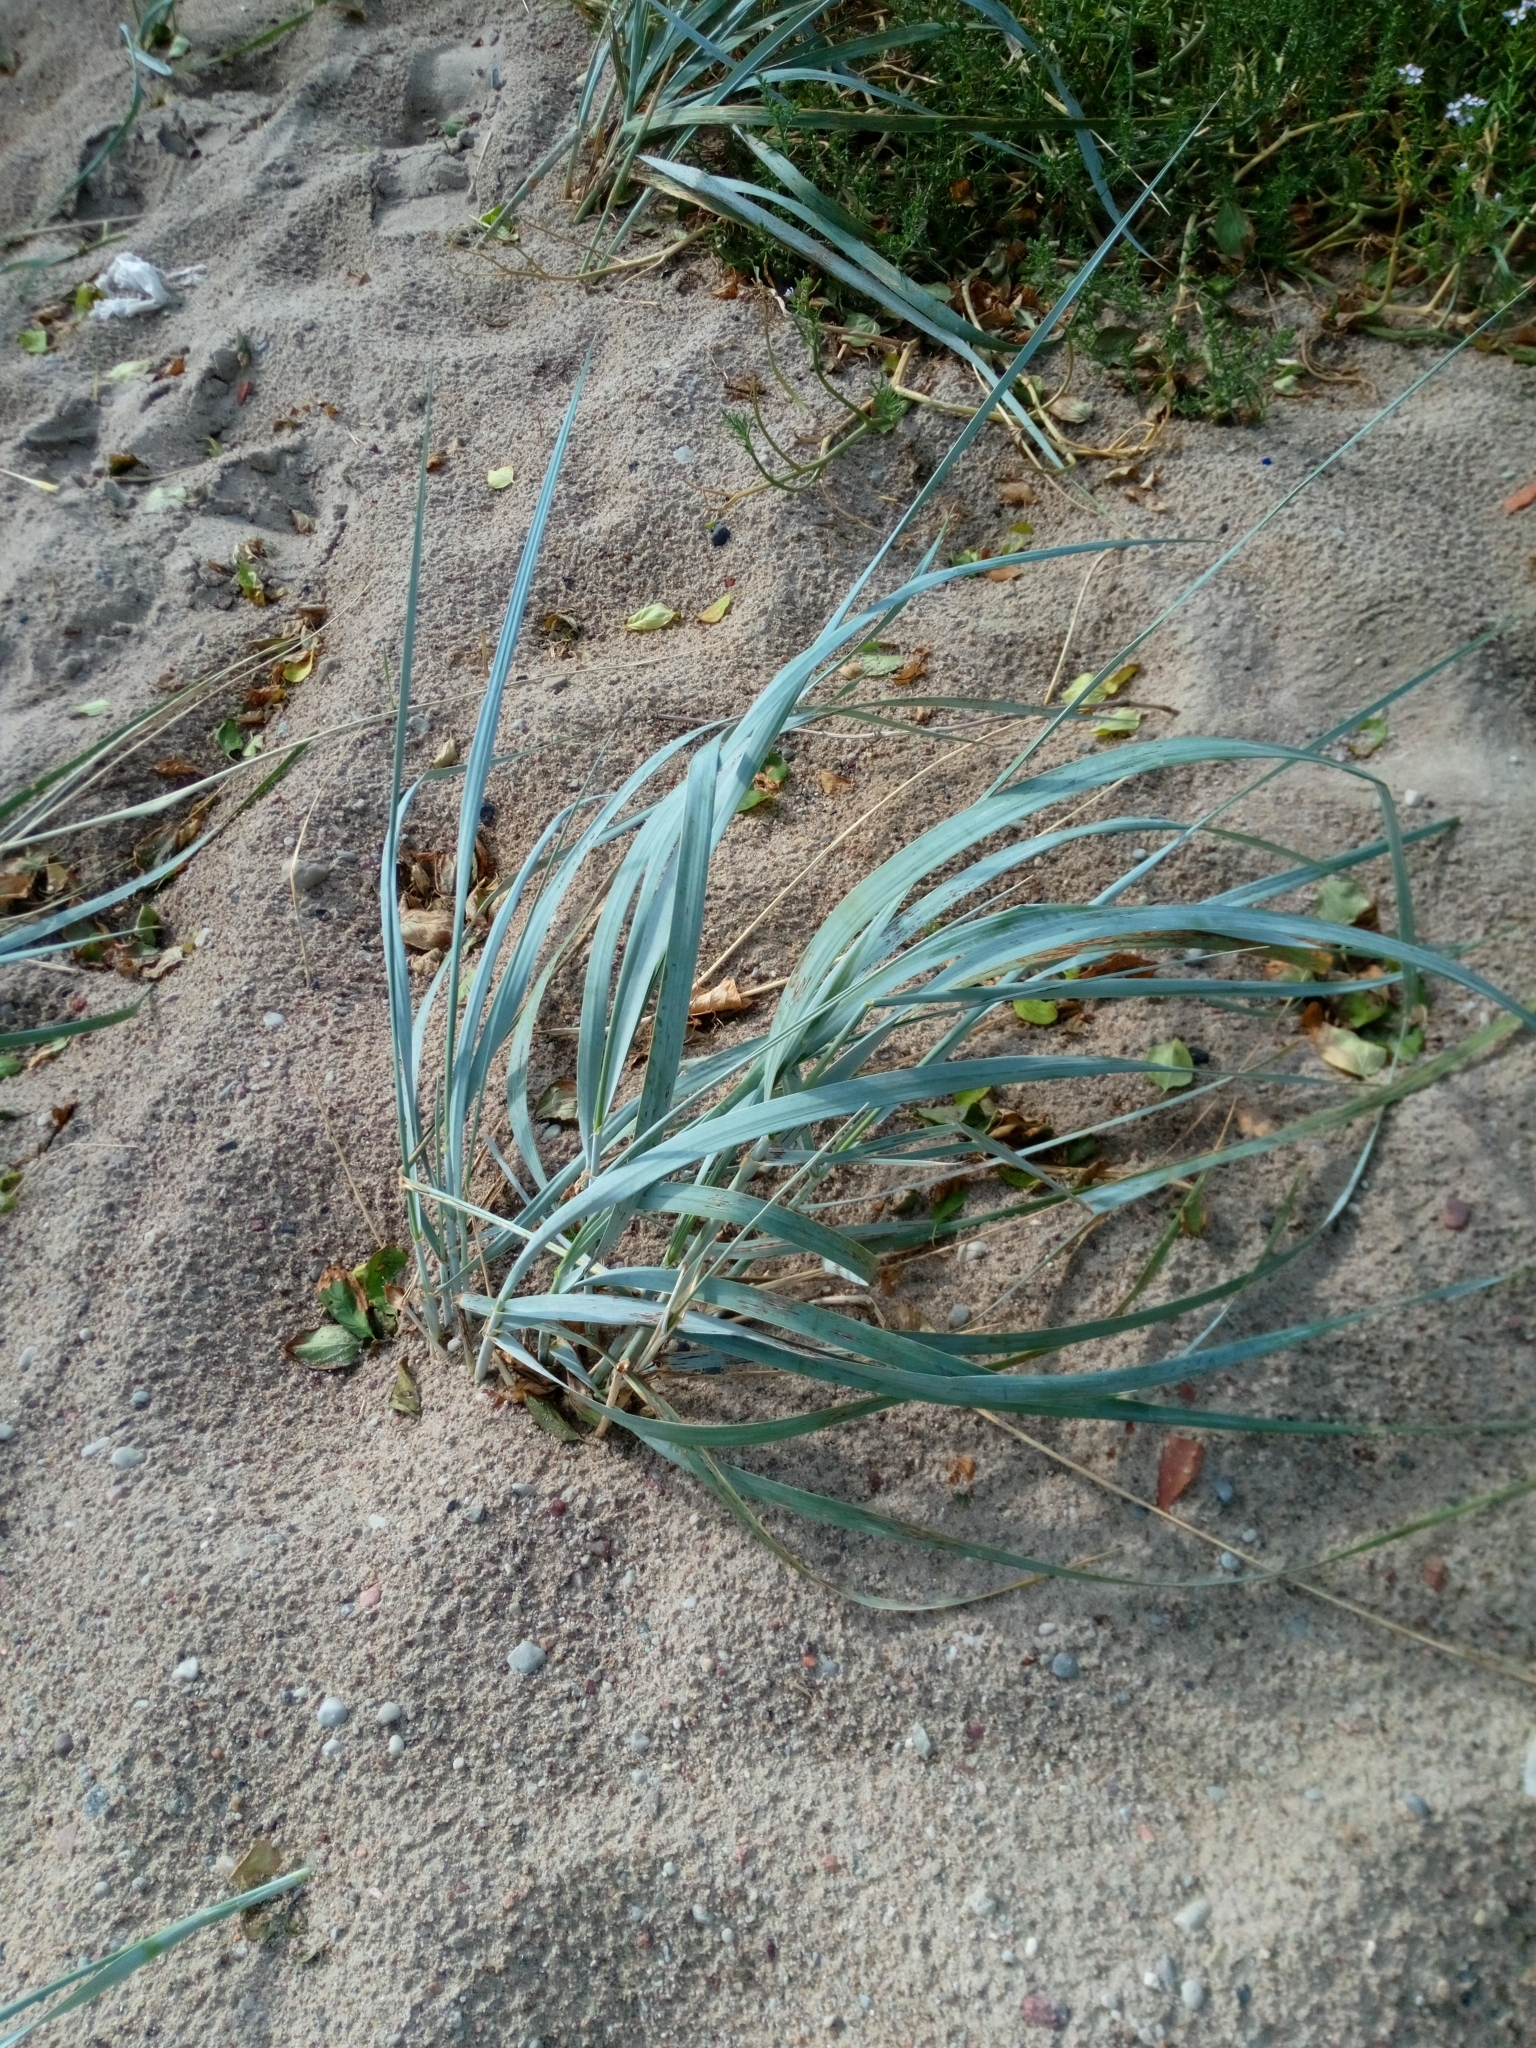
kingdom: Plantae
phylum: Tracheophyta
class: Liliopsida
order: Poales
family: Poaceae
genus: Leymus
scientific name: Leymus arenarius
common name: Lyme-grass
